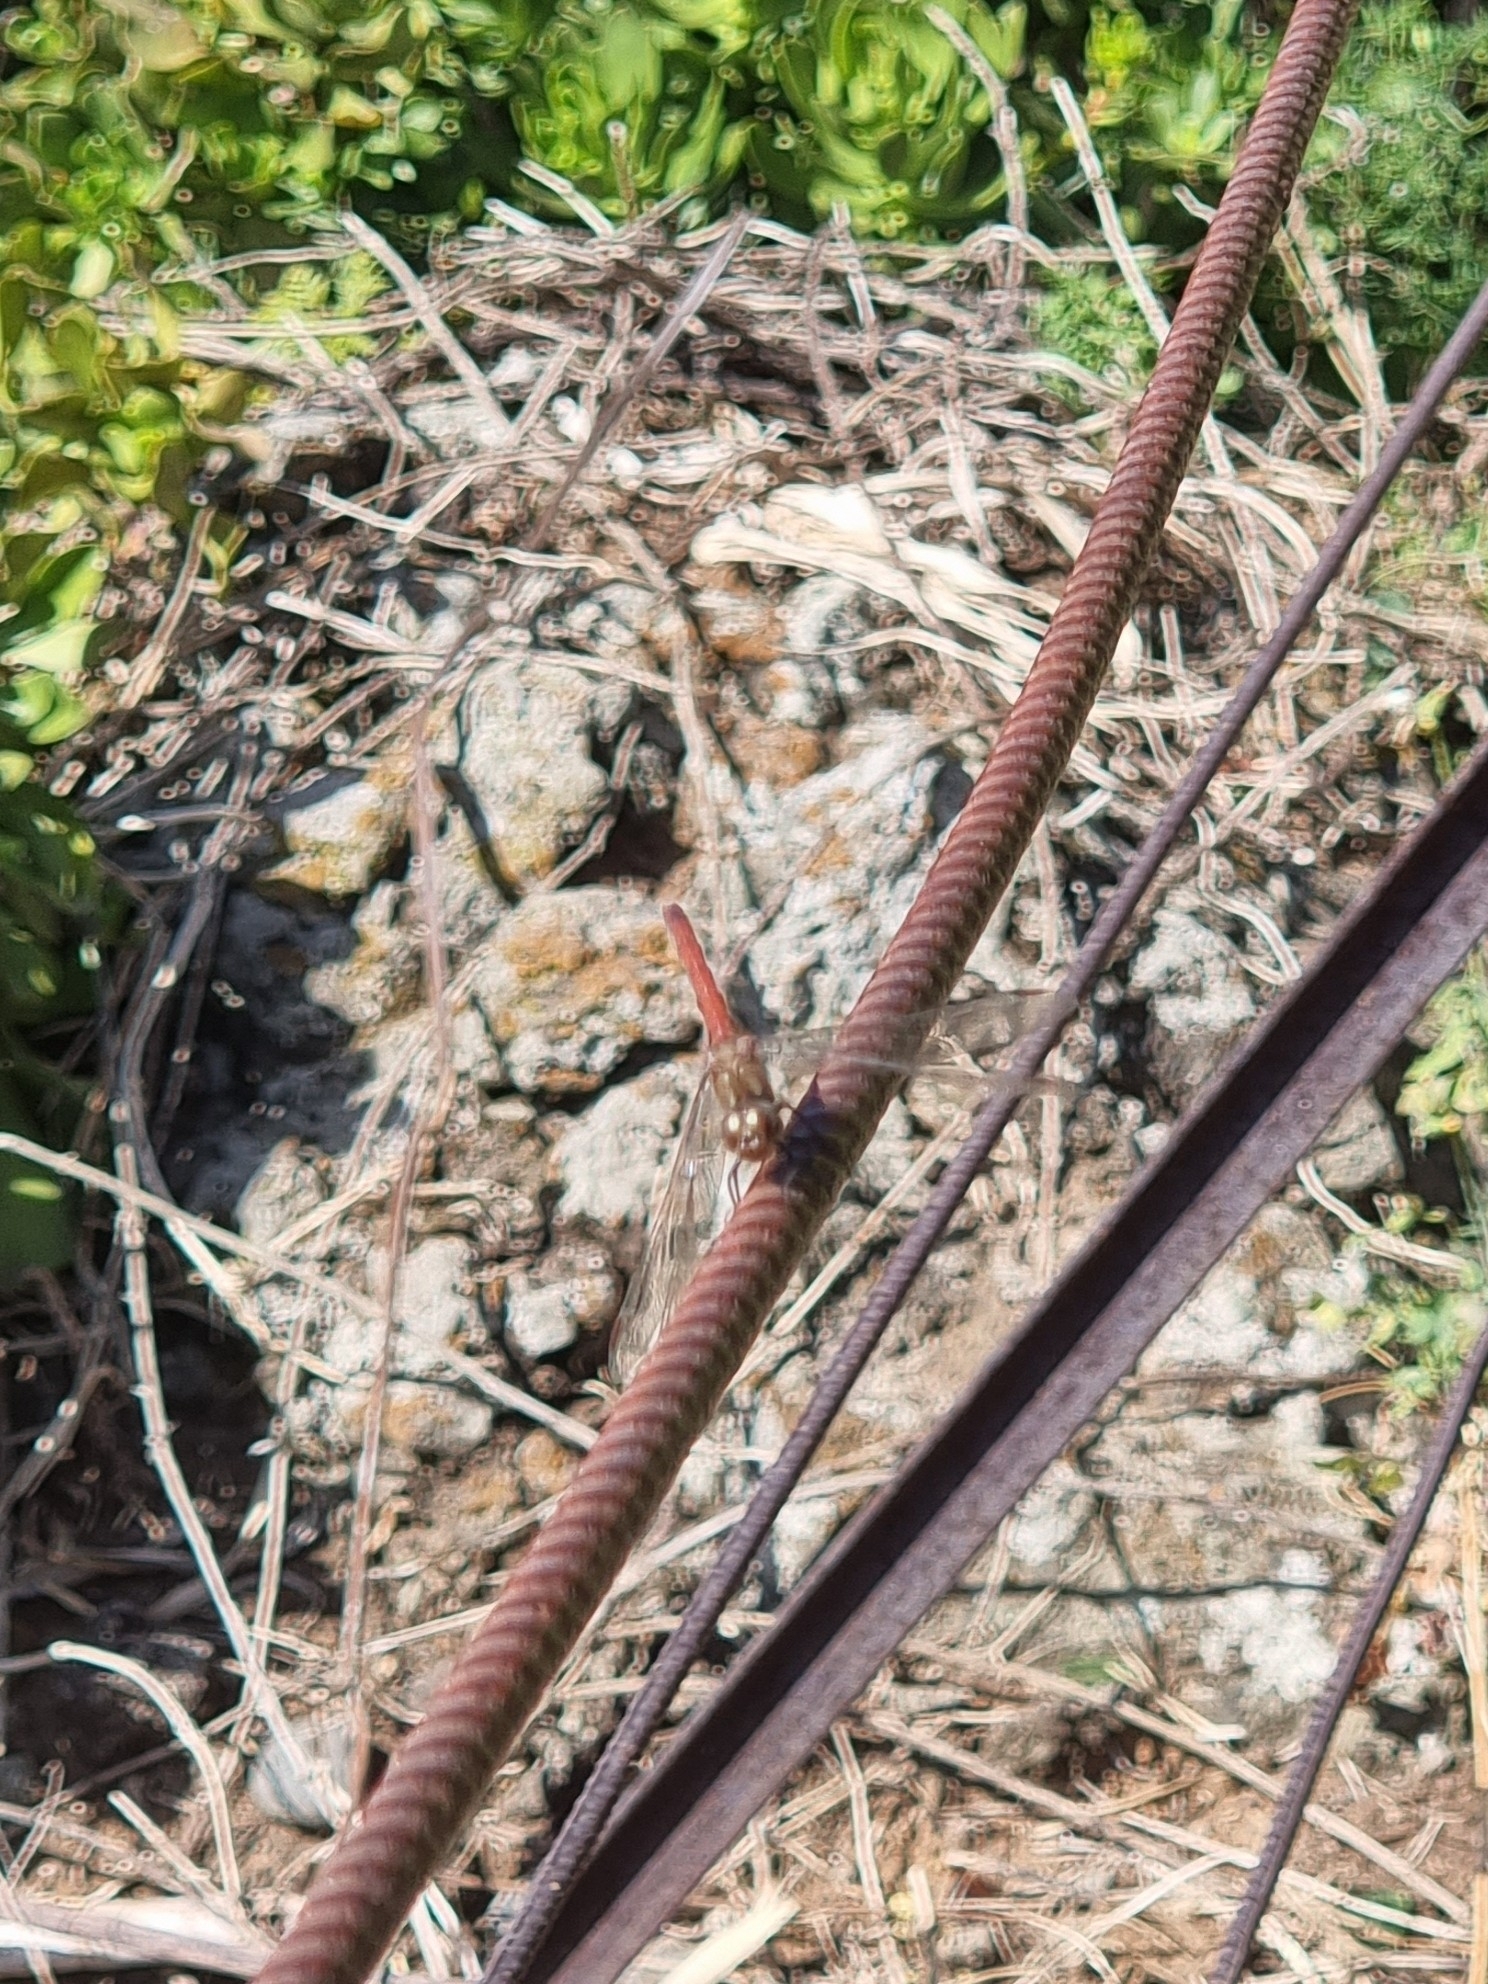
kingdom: Animalia
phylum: Arthropoda
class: Insecta
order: Odonata
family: Libellulidae
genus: Sympetrum
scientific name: Sympetrum nigrifemur
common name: Island darter
